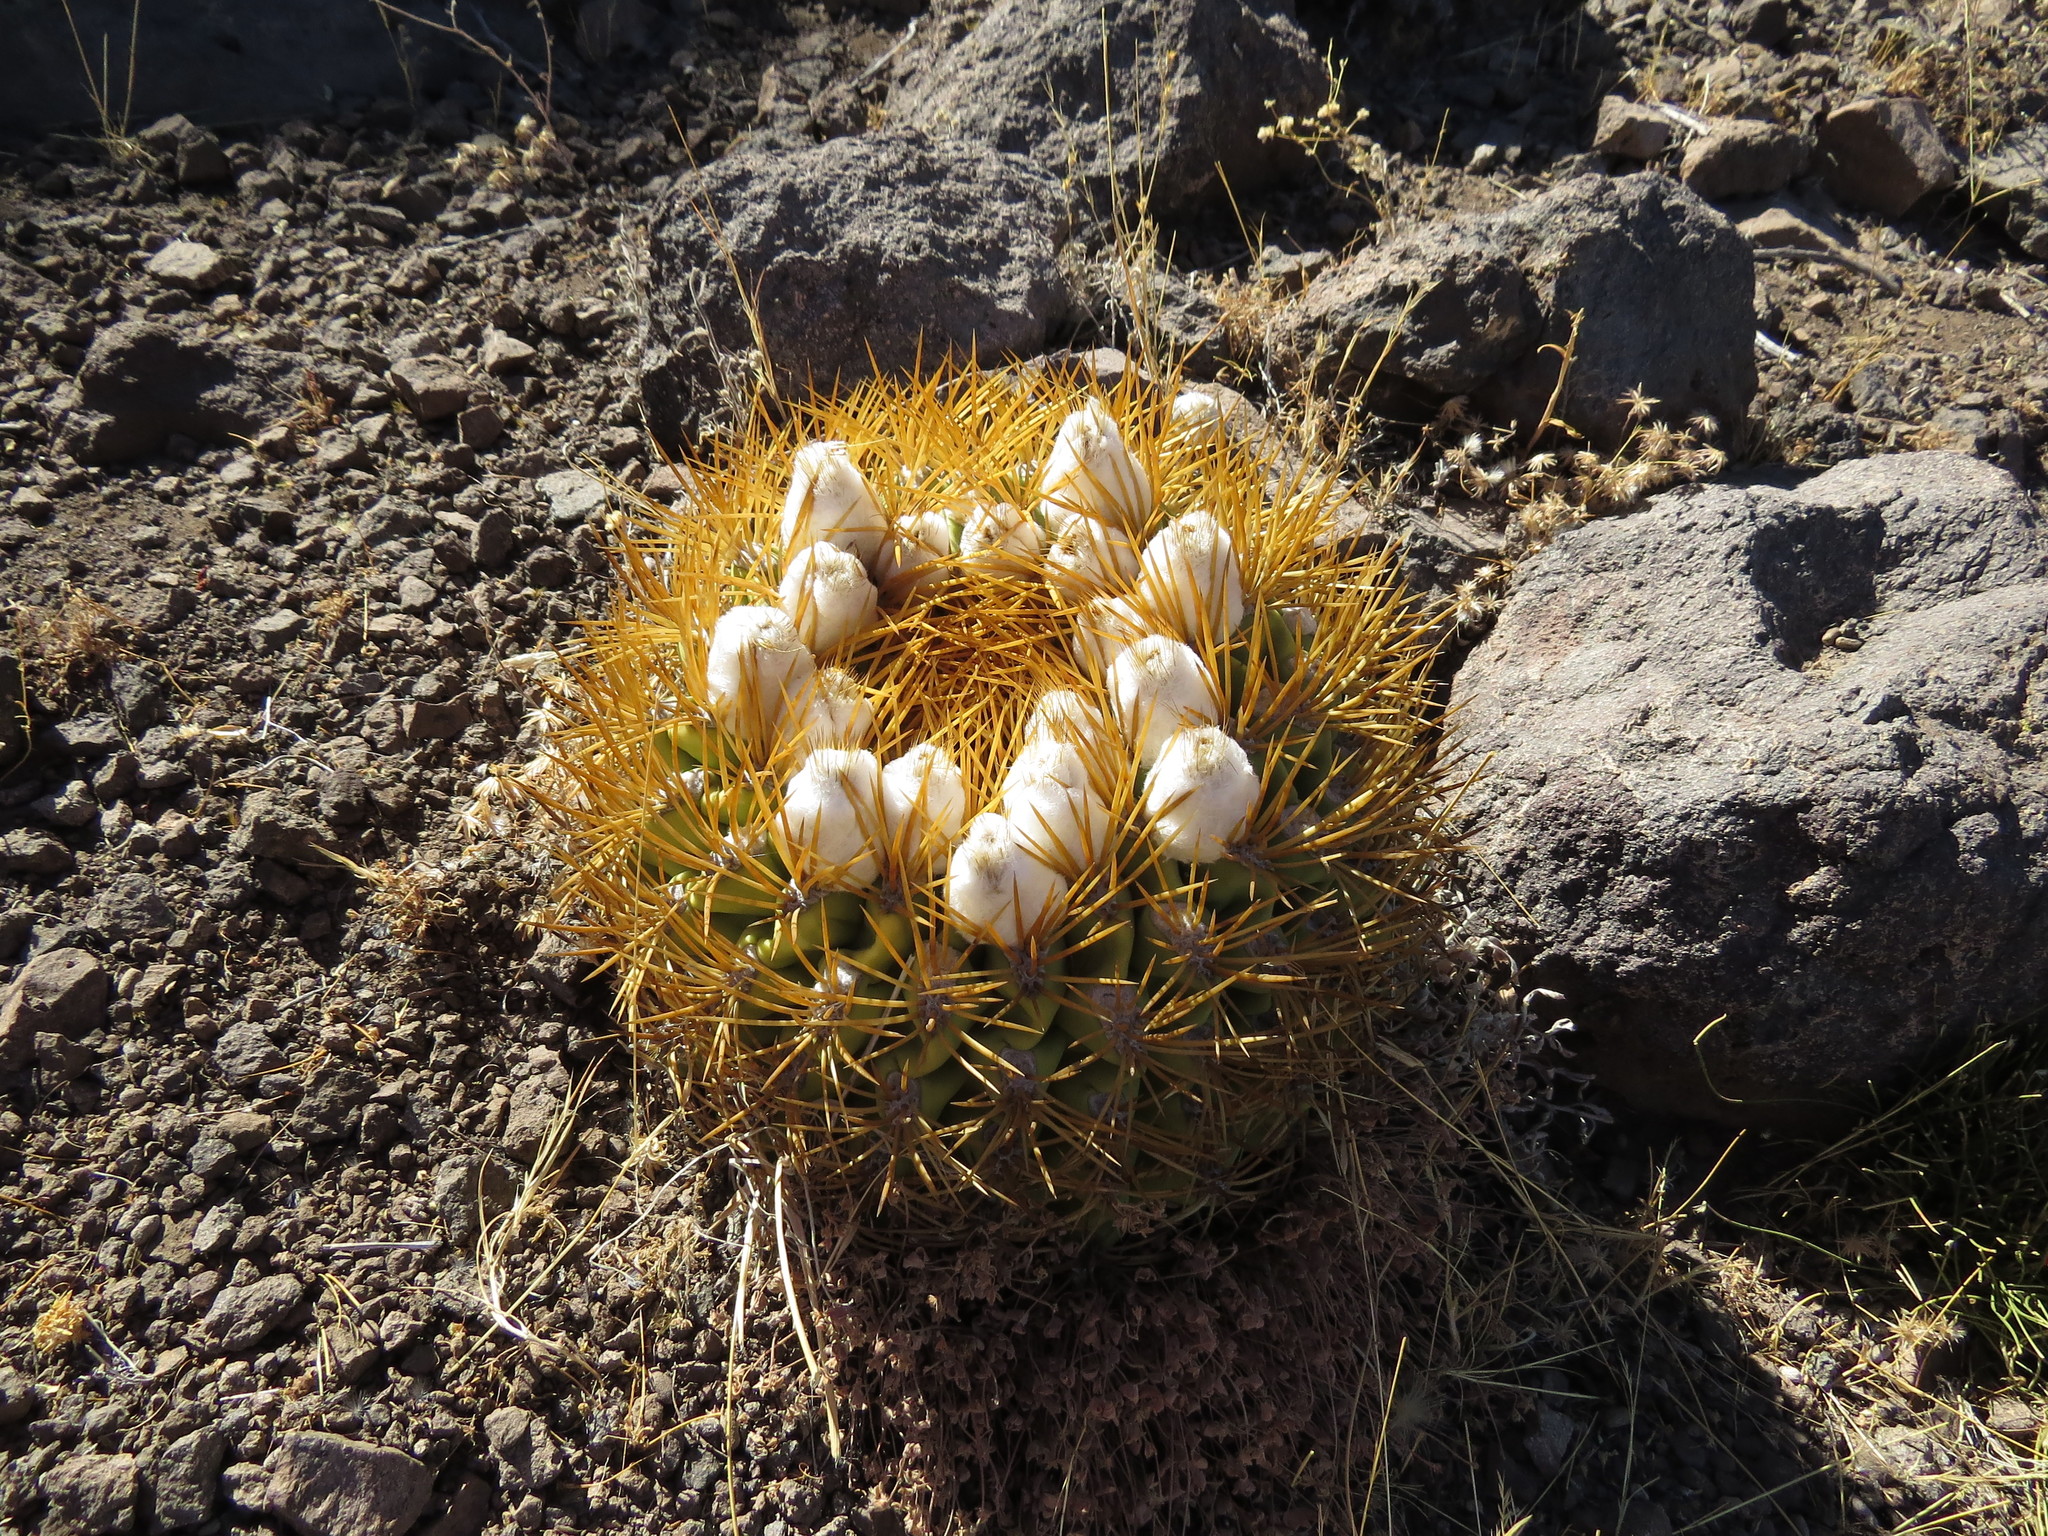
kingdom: Plantae
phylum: Tracheophyta
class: Magnoliopsida
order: Caryophyllales
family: Cactaceae
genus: Eriosyce
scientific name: Eriosyce aurata
